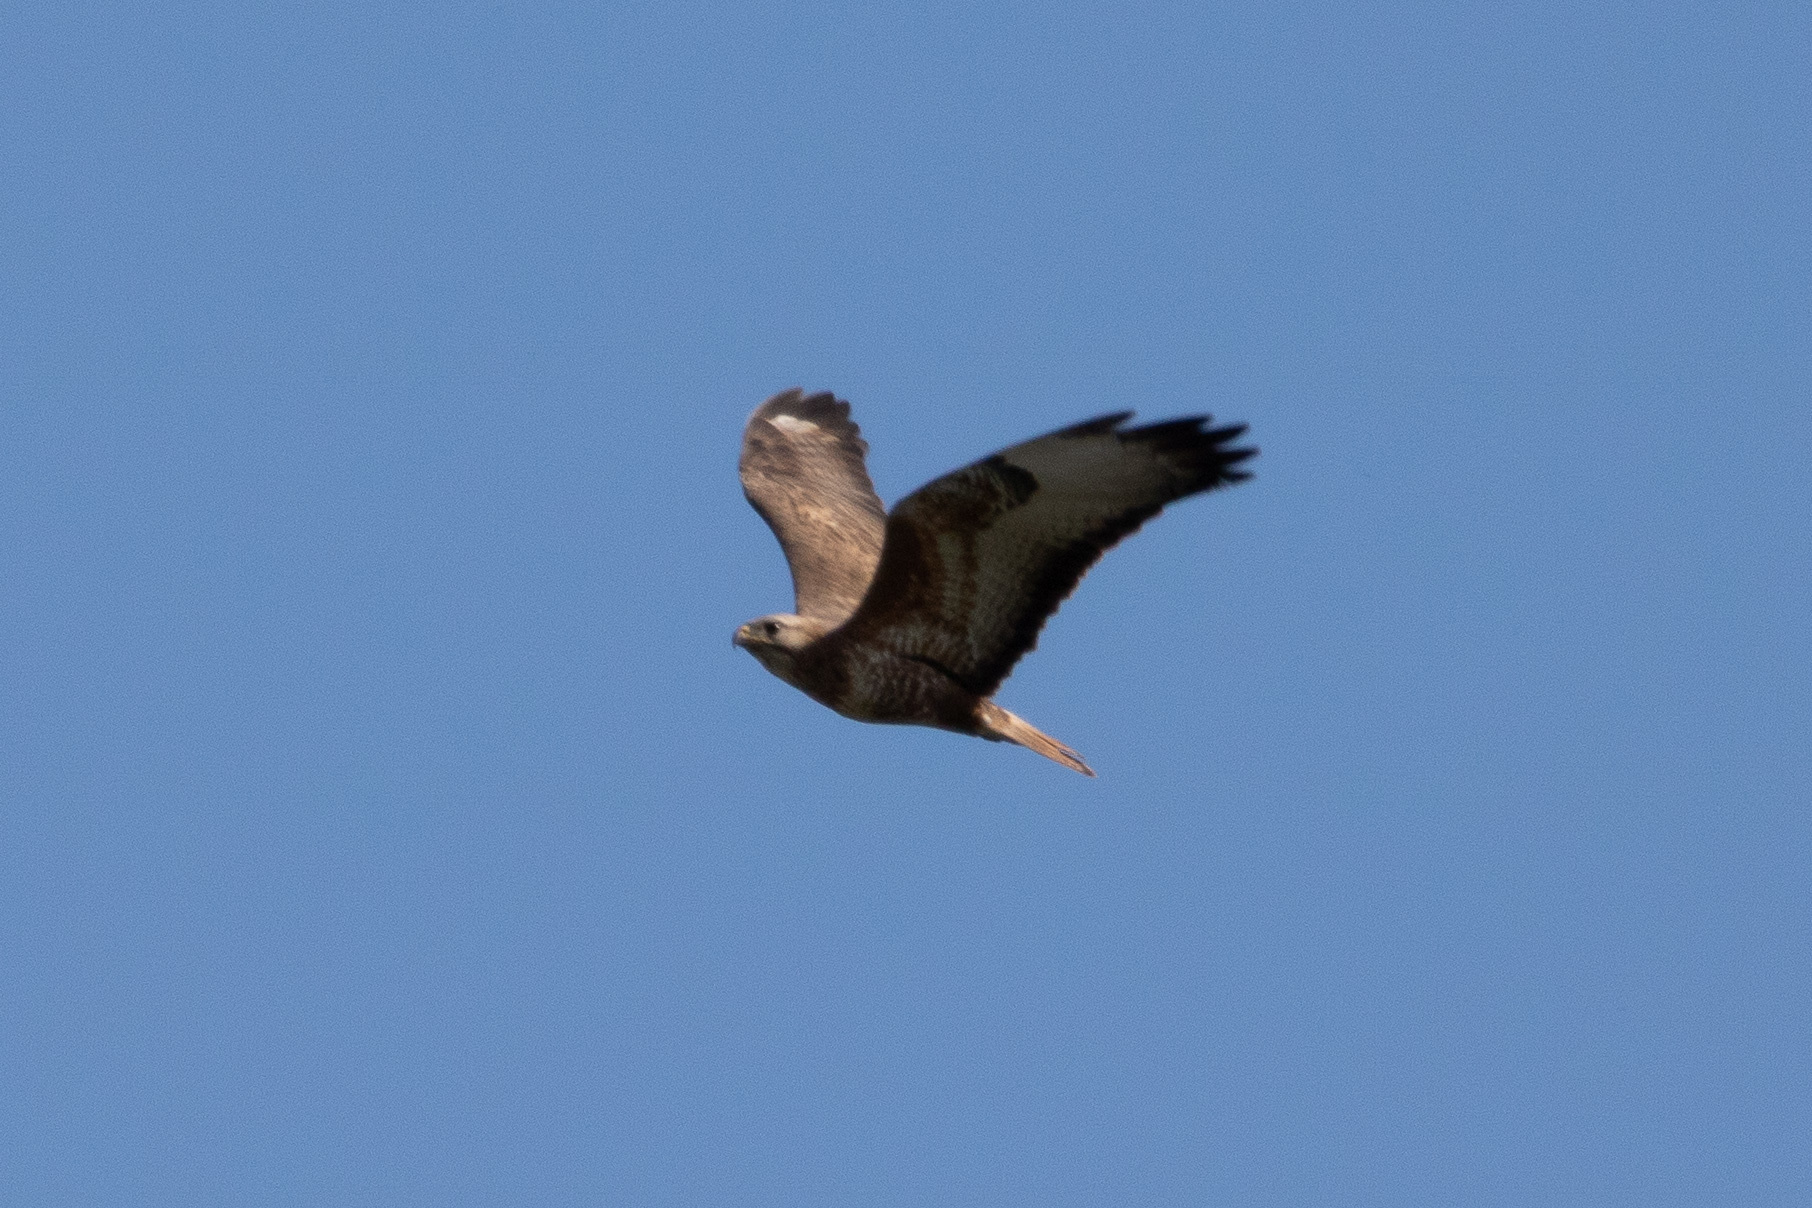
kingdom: Animalia
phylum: Chordata
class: Aves
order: Accipitriformes
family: Accipitridae
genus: Buteo
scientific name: Buteo buteo
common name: Common buzzard
